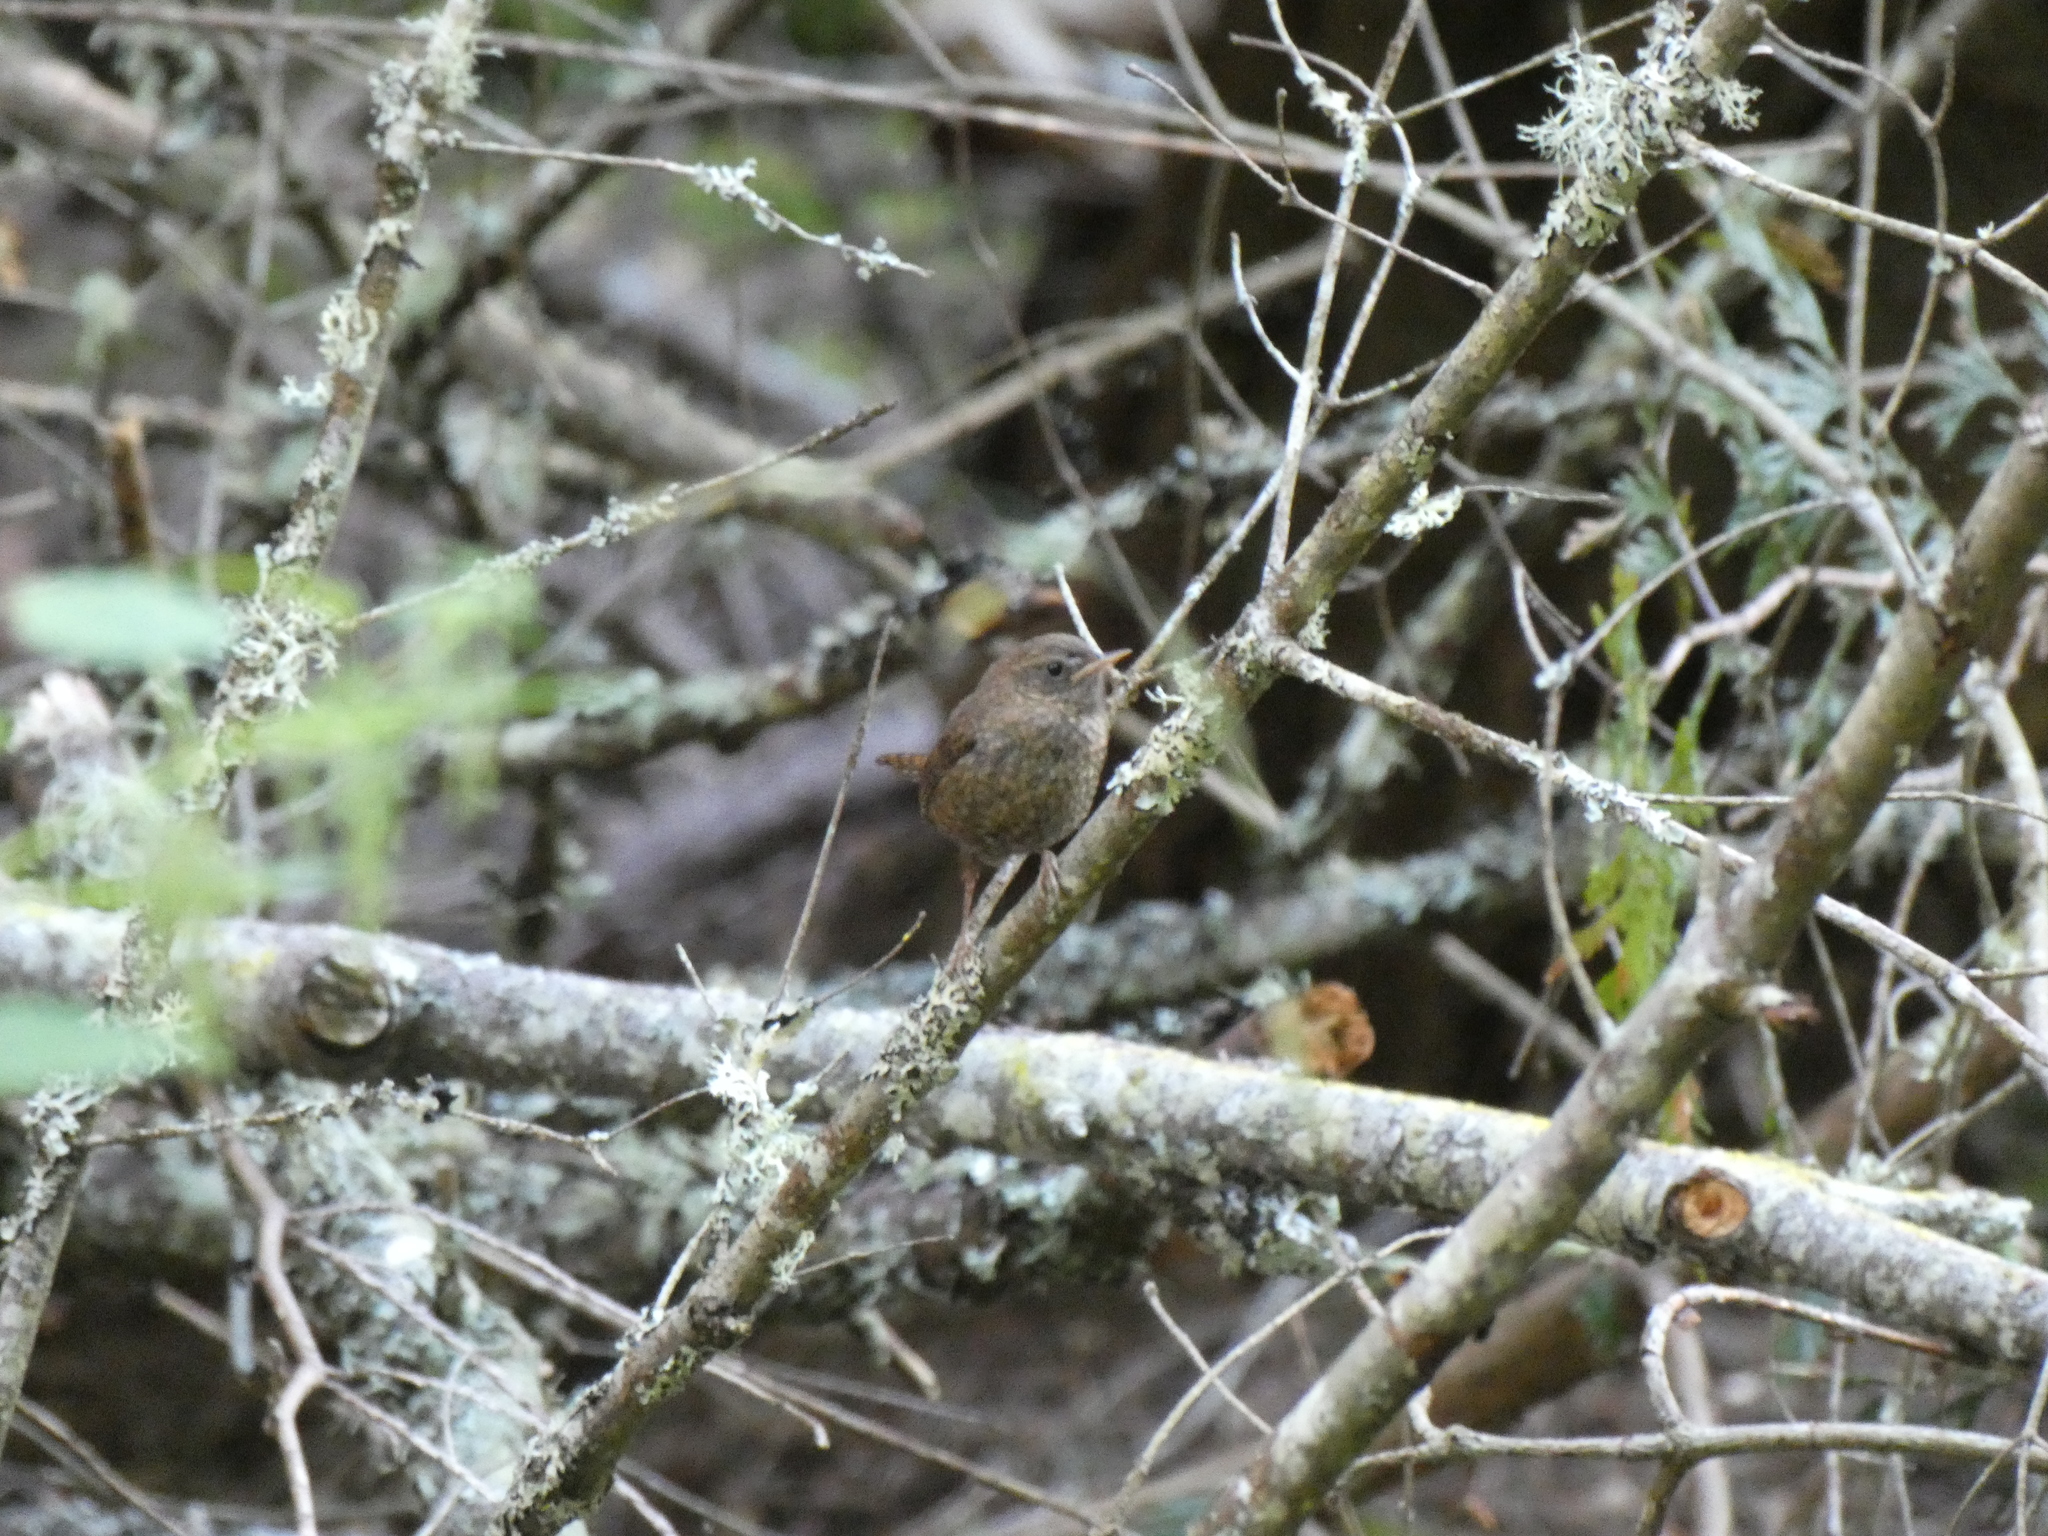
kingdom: Animalia
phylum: Chordata
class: Aves
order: Passeriformes
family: Troglodytidae
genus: Troglodytes
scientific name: Troglodytes pacificus
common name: Pacific wren
